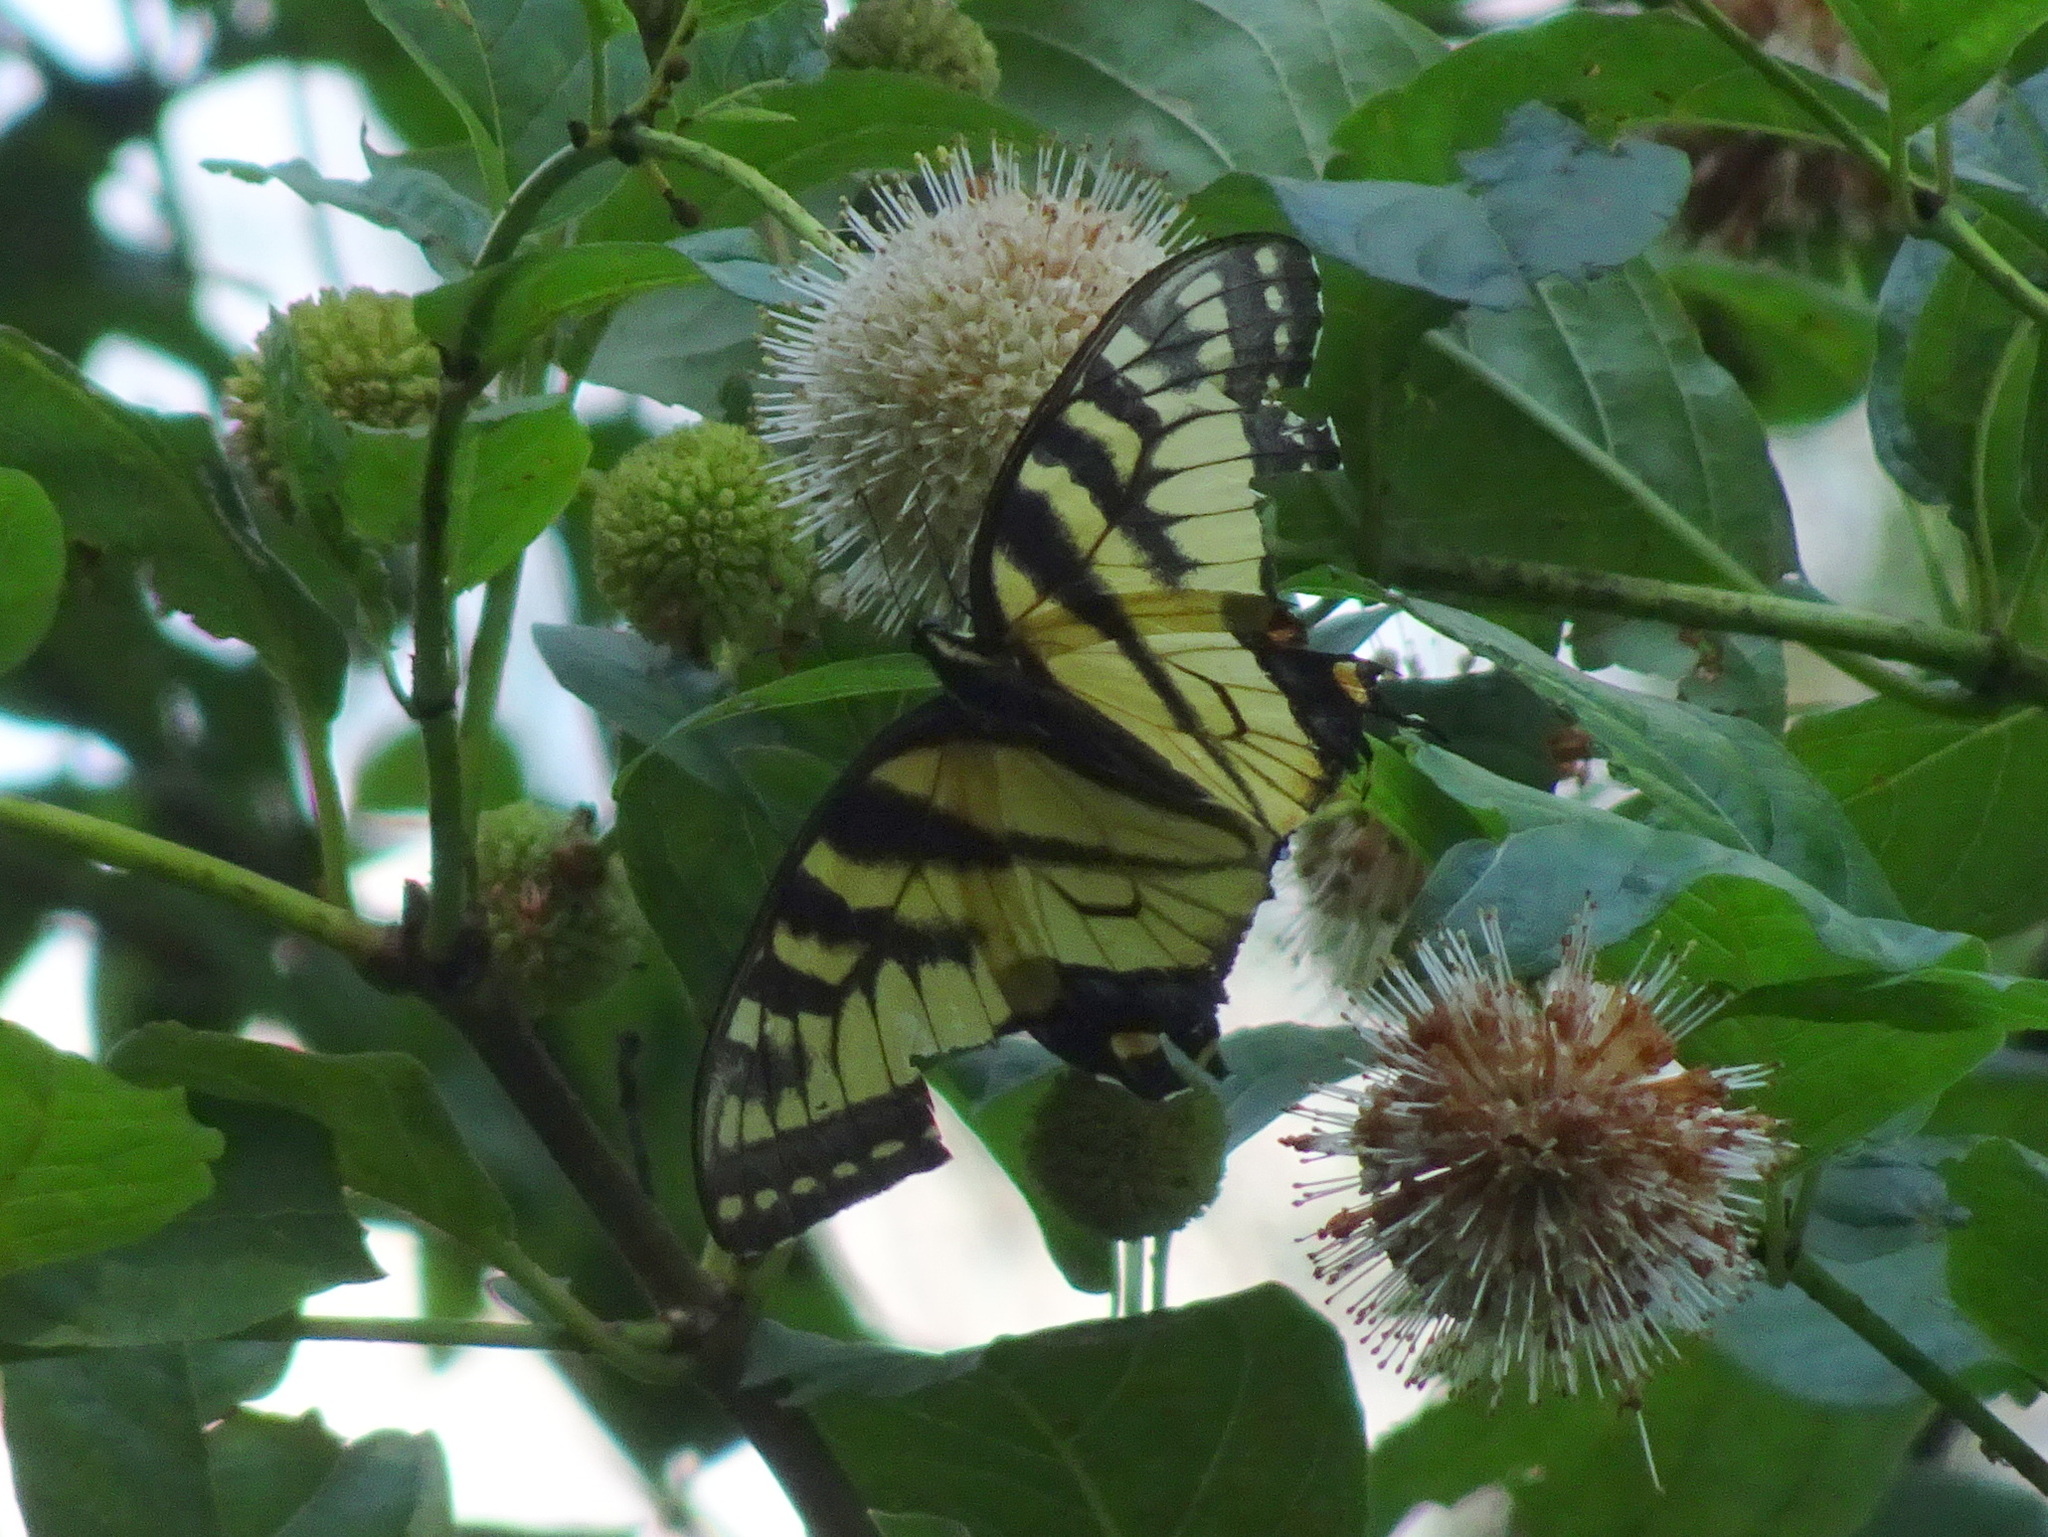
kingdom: Animalia
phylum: Arthropoda
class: Insecta
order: Lepidoptera
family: Papilionidae
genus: Papilio
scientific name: Papilio glaucus
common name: Tiger swallowtail
